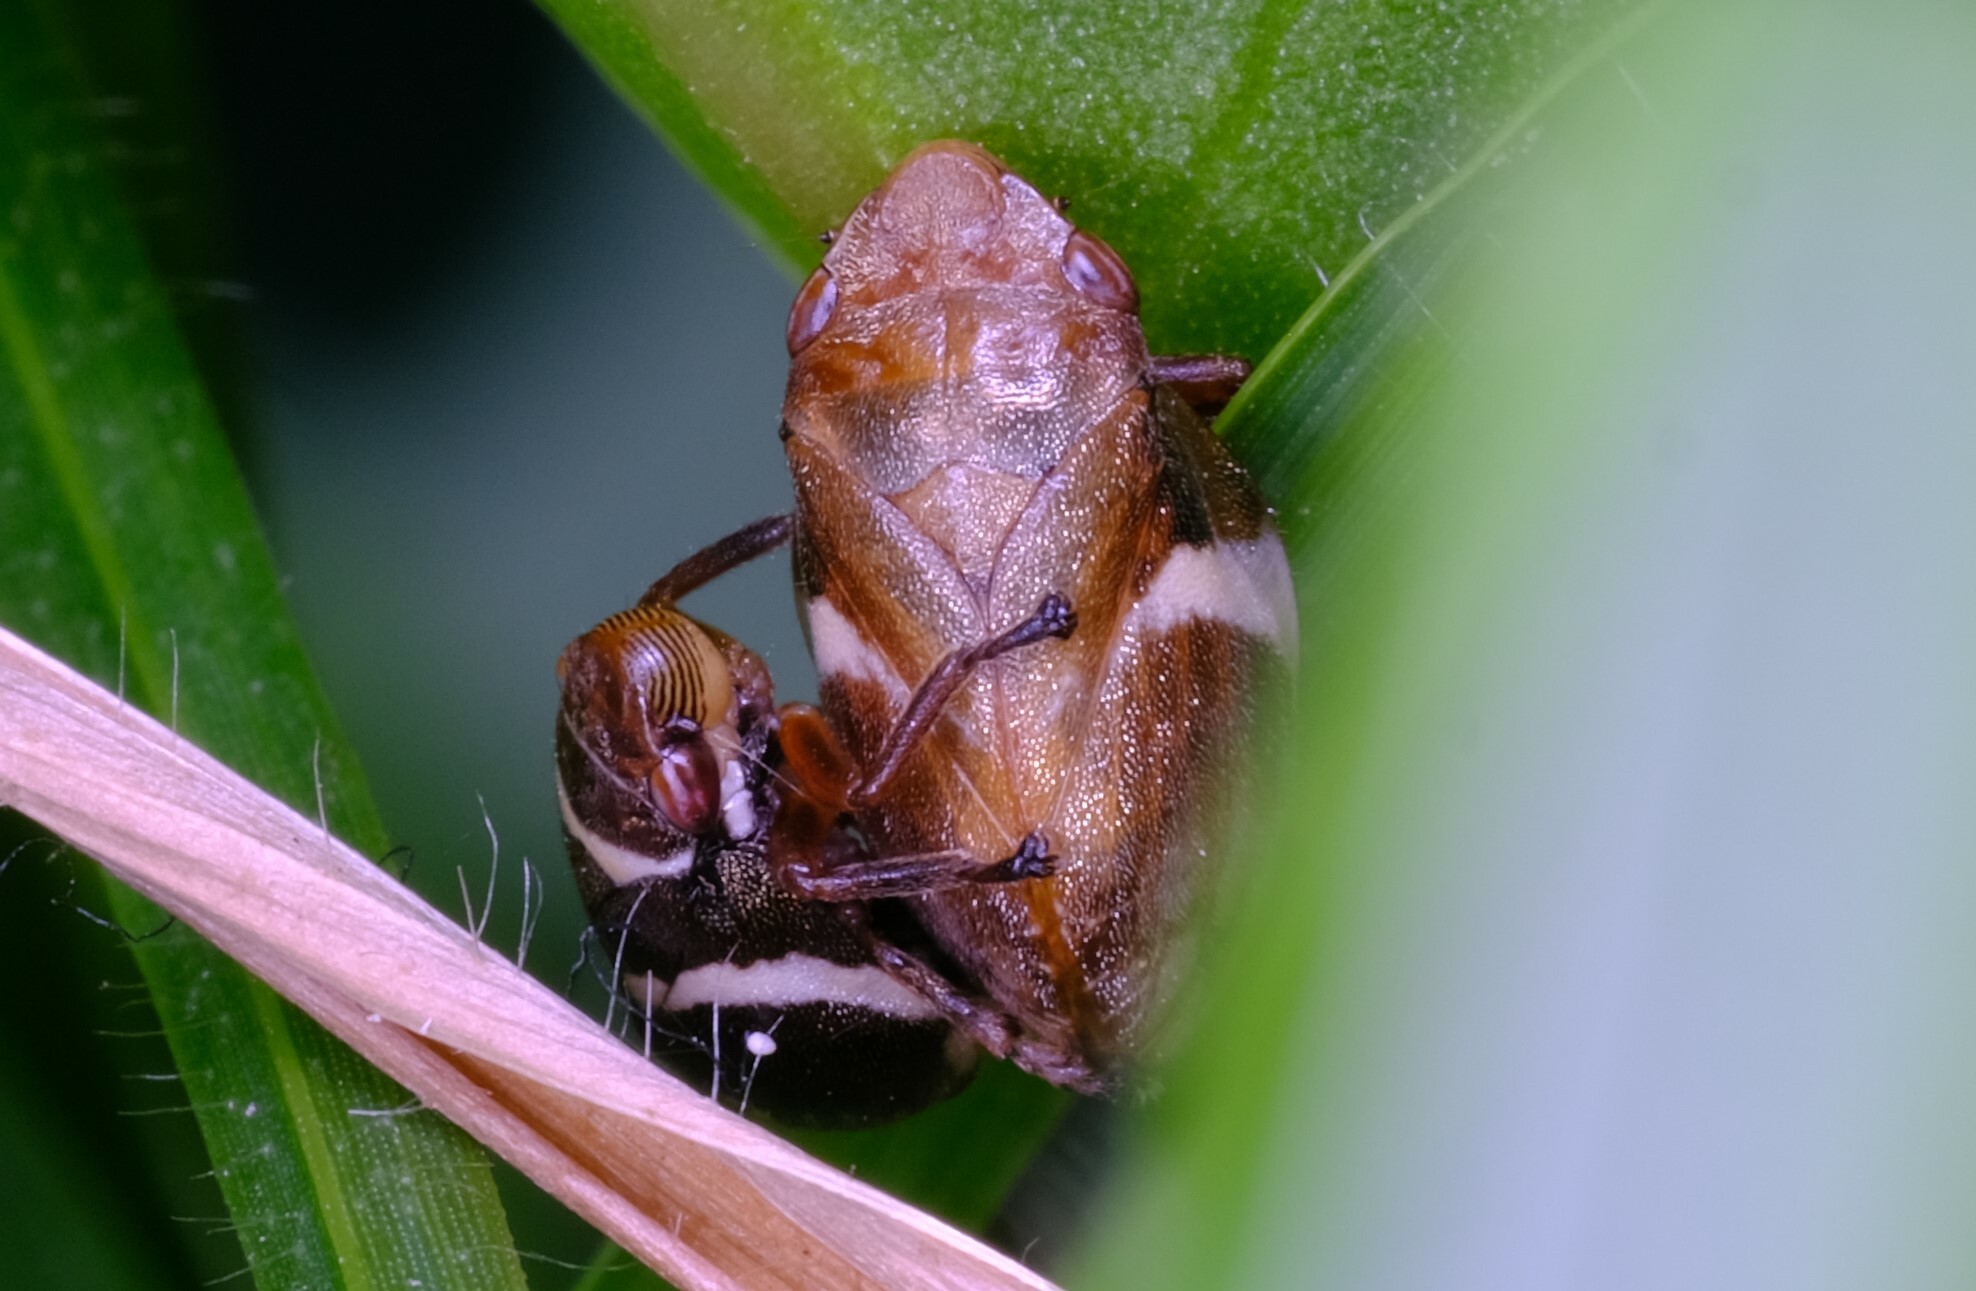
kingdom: Animalia
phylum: Arthropoda
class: Insecta
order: Hemiptera
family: Aphrophoridae
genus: Bathyllus
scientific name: Bathyllus albicinctus
